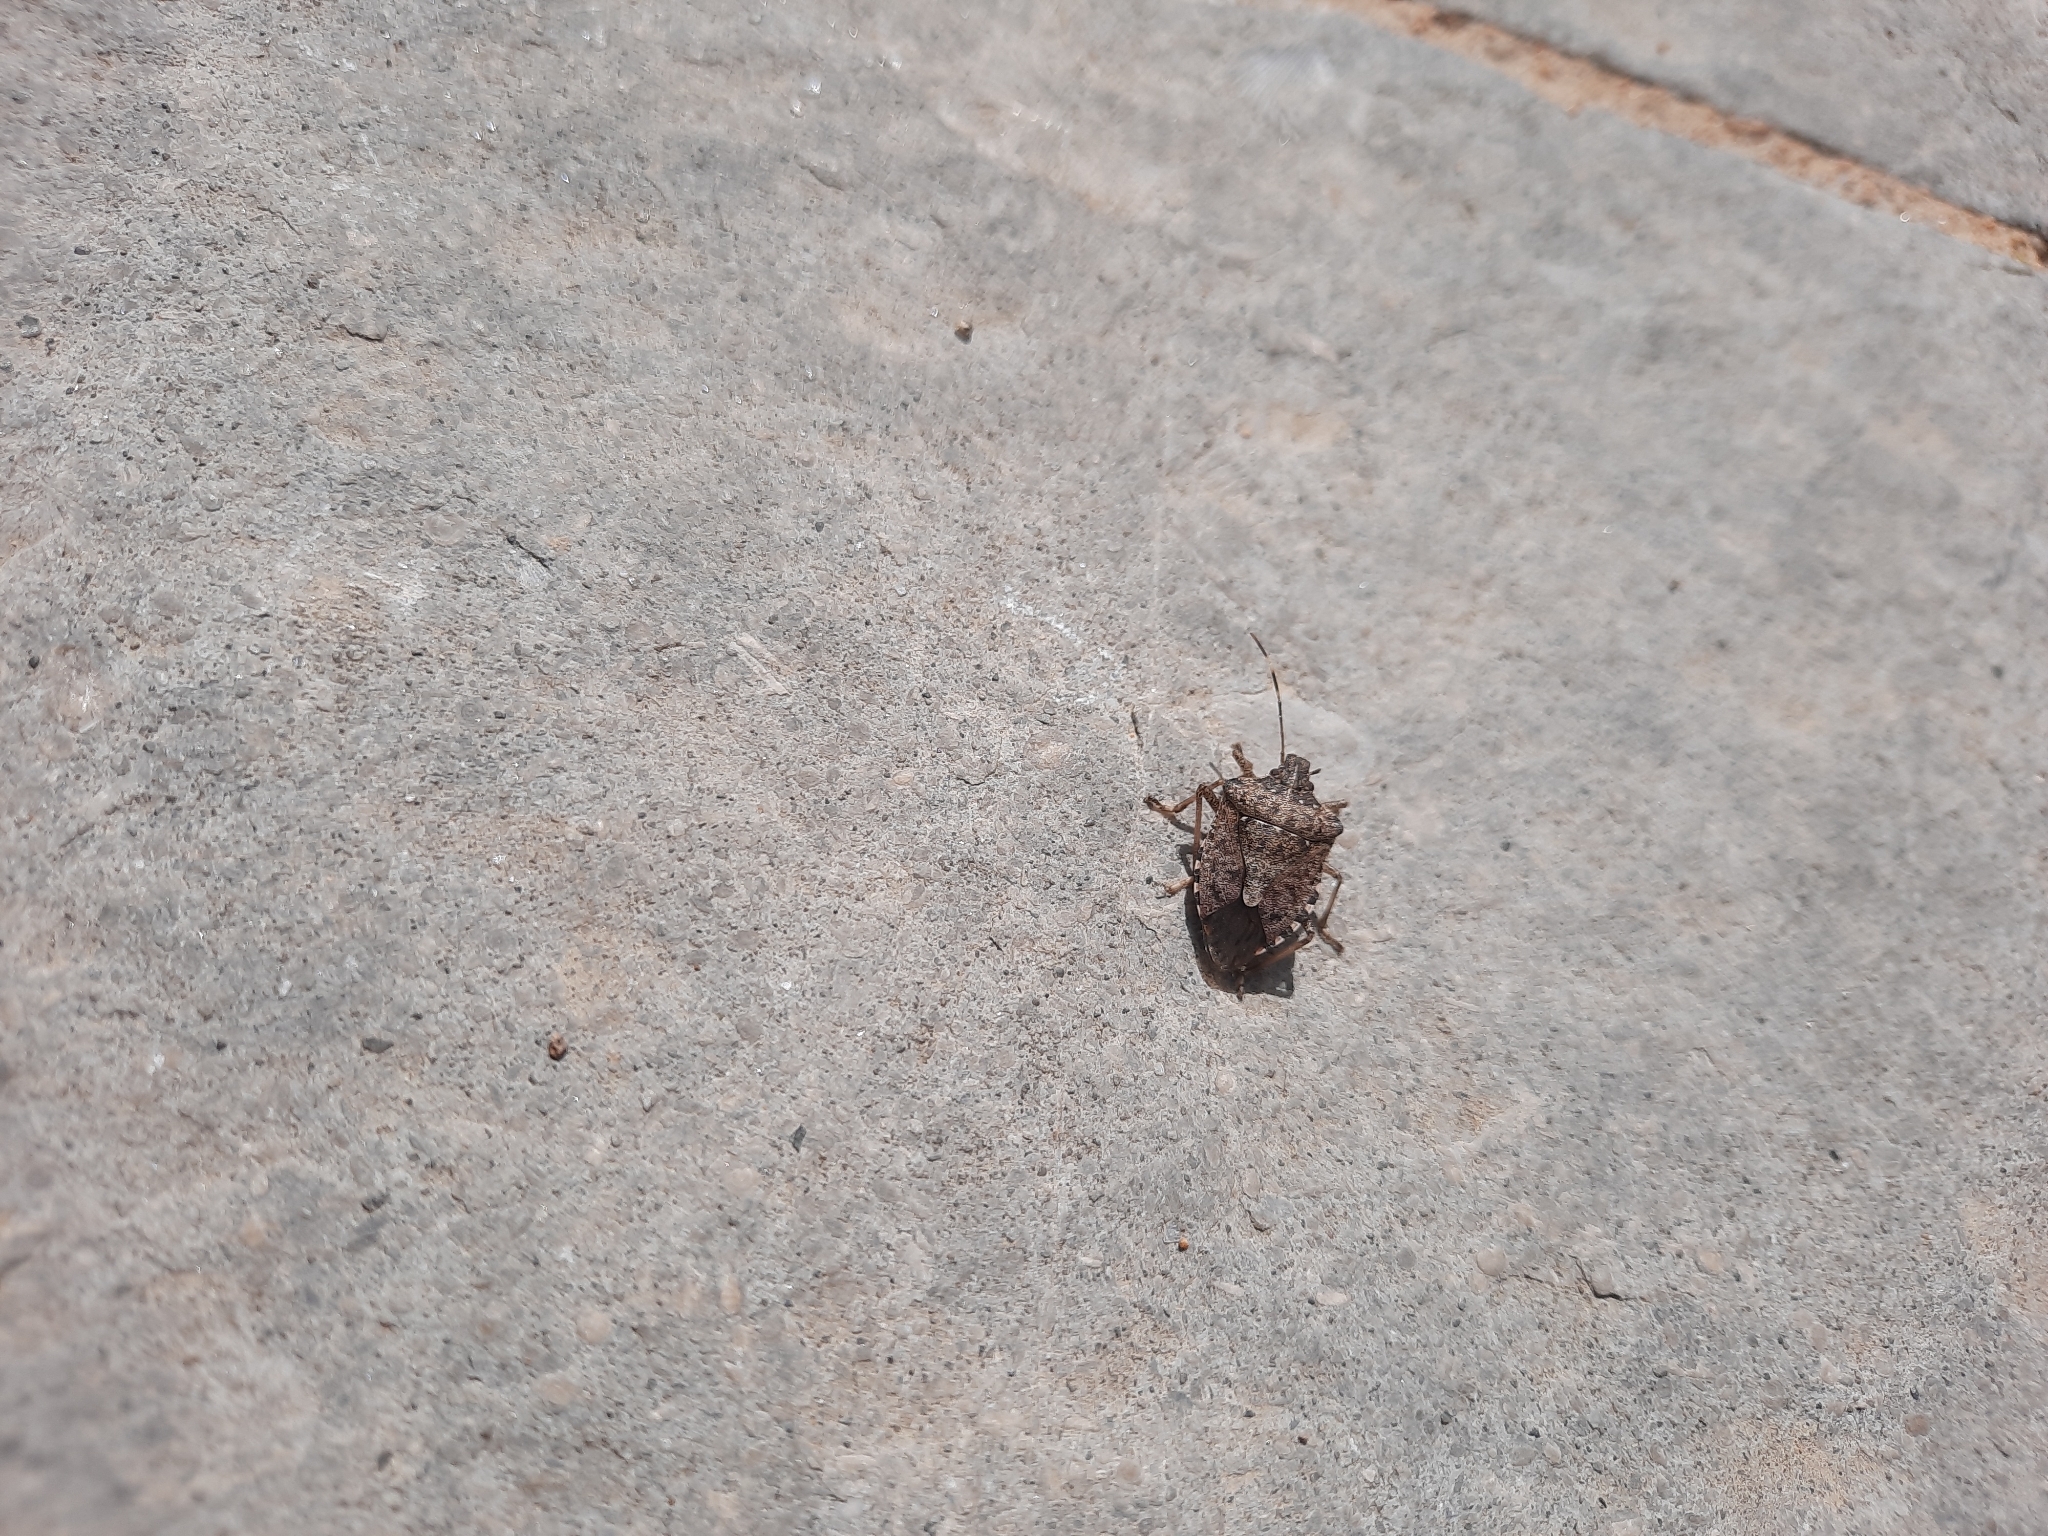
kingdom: Animalia
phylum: Arthropoda
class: Insecta
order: Hemiptera
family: Pentatomidae
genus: Halyomorpha
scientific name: Halyomorpha halys
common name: Brown marmorated stink bug
